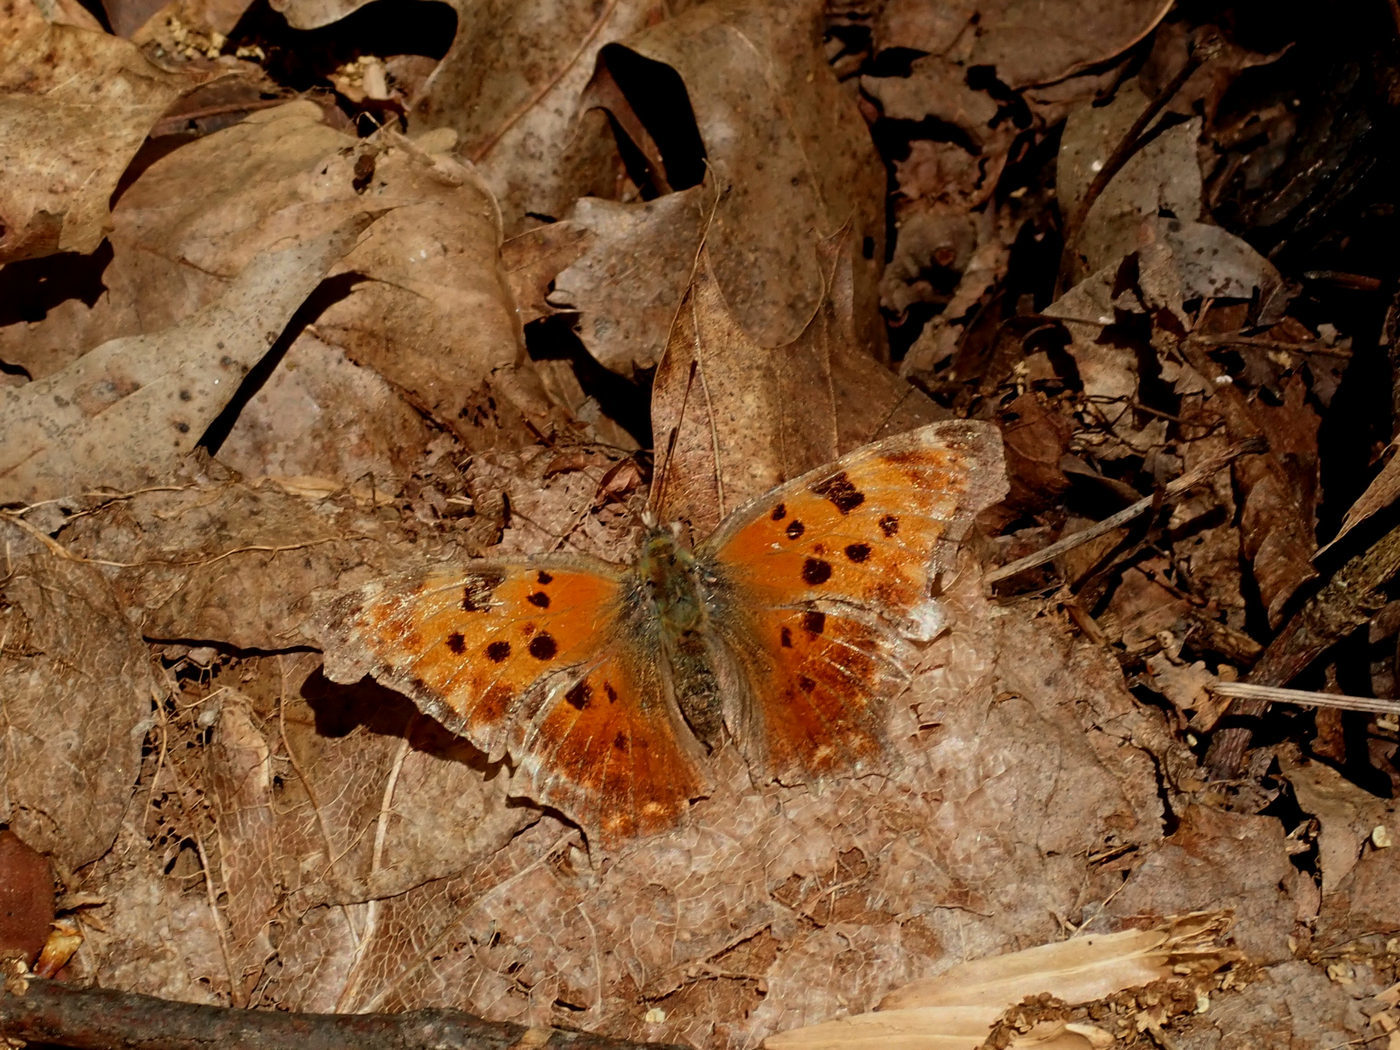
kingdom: Animalia
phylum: Arthropoda
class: Insecta
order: Lepidoptera
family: Nymphalidae
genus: Polygonia
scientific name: Polygonia comma
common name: Eastern comma
